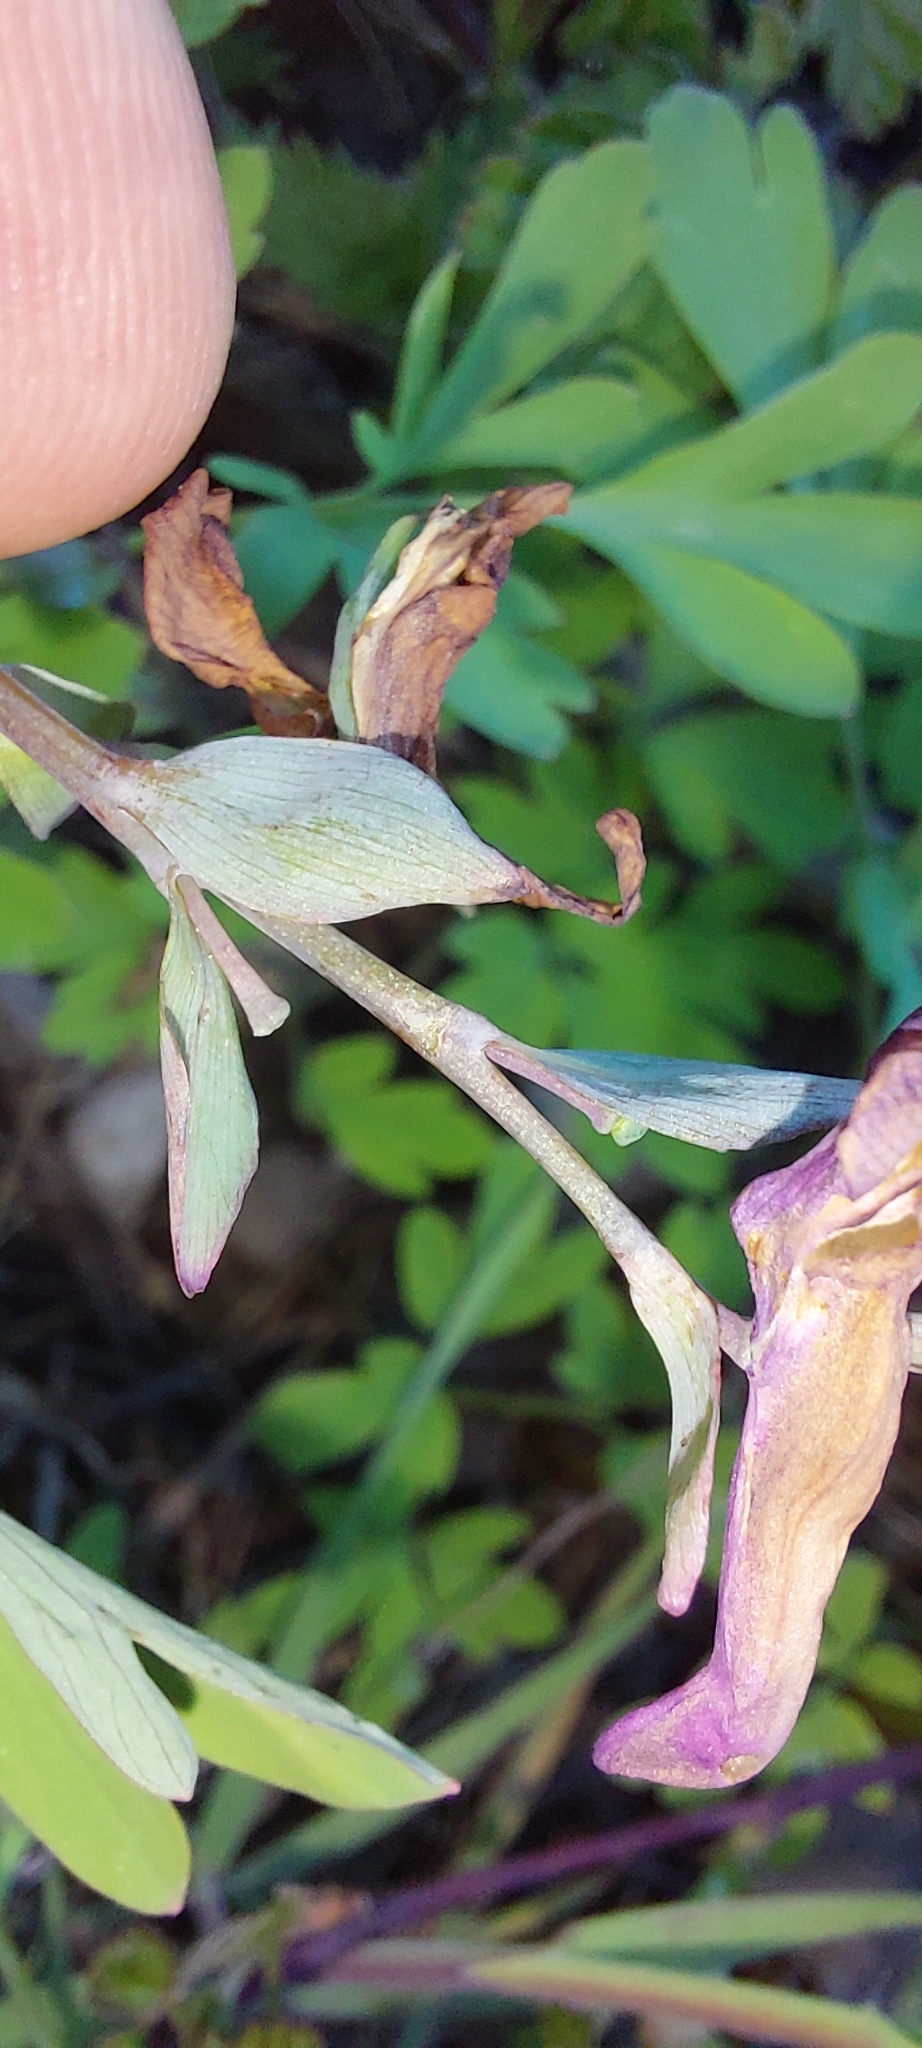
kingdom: Plantae
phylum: Tracheophyta
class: Magnoliopsida
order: Ranunculales
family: Papaveraceae
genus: Corydalis
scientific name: Corydalis cava
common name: Hollowroot
